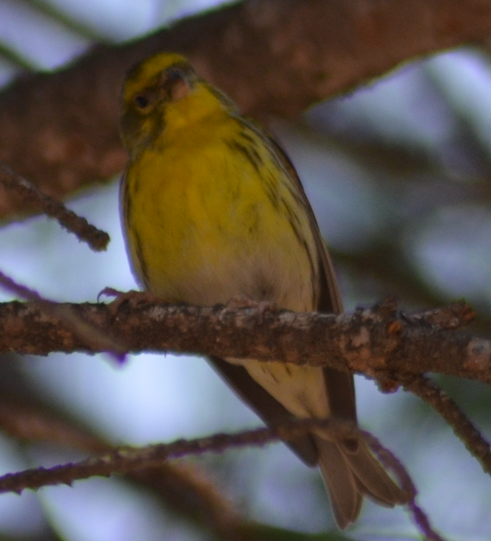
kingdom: Animalia
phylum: Chordata
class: Aves
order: Passeriformes
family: Fringillidae
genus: Serinus
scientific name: Serinus serinus
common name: European serin
